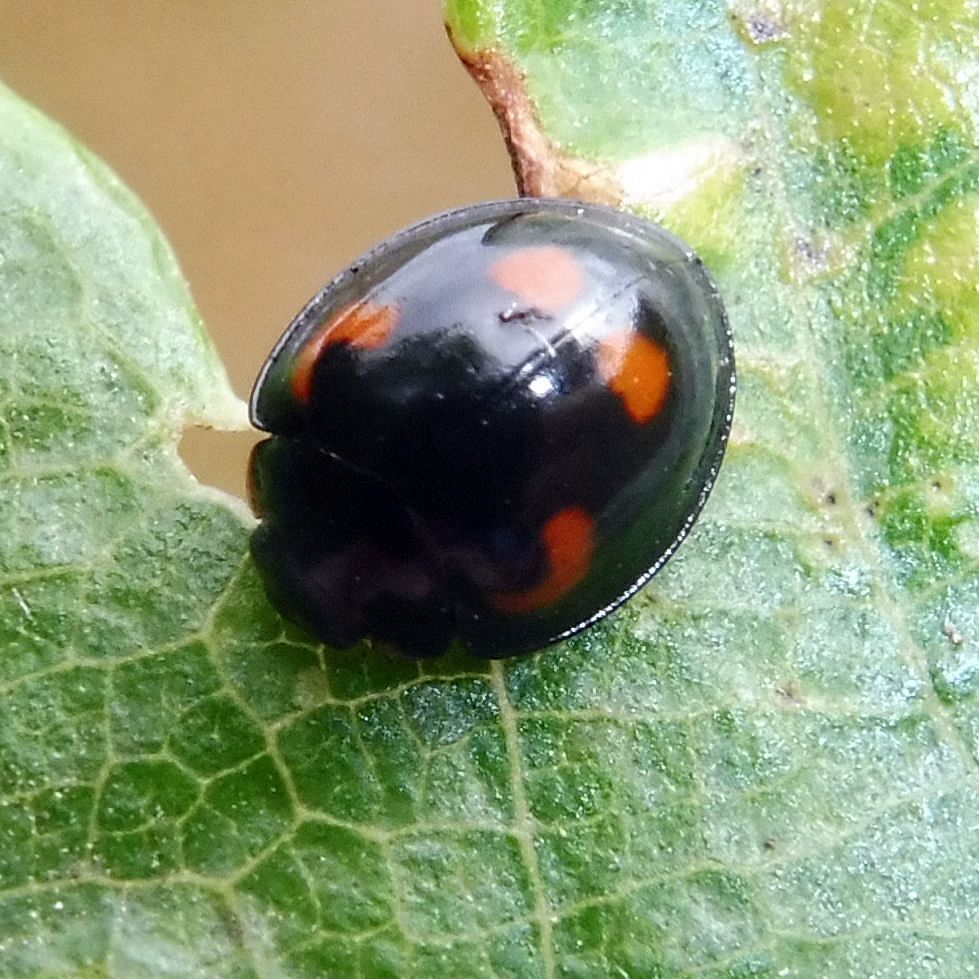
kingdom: Animalia
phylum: Arthropoda
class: Insecta
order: Coleoptera
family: Coccinellidae
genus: Brumus
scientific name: Brumus quadripustulatus
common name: Ladybird beetle
